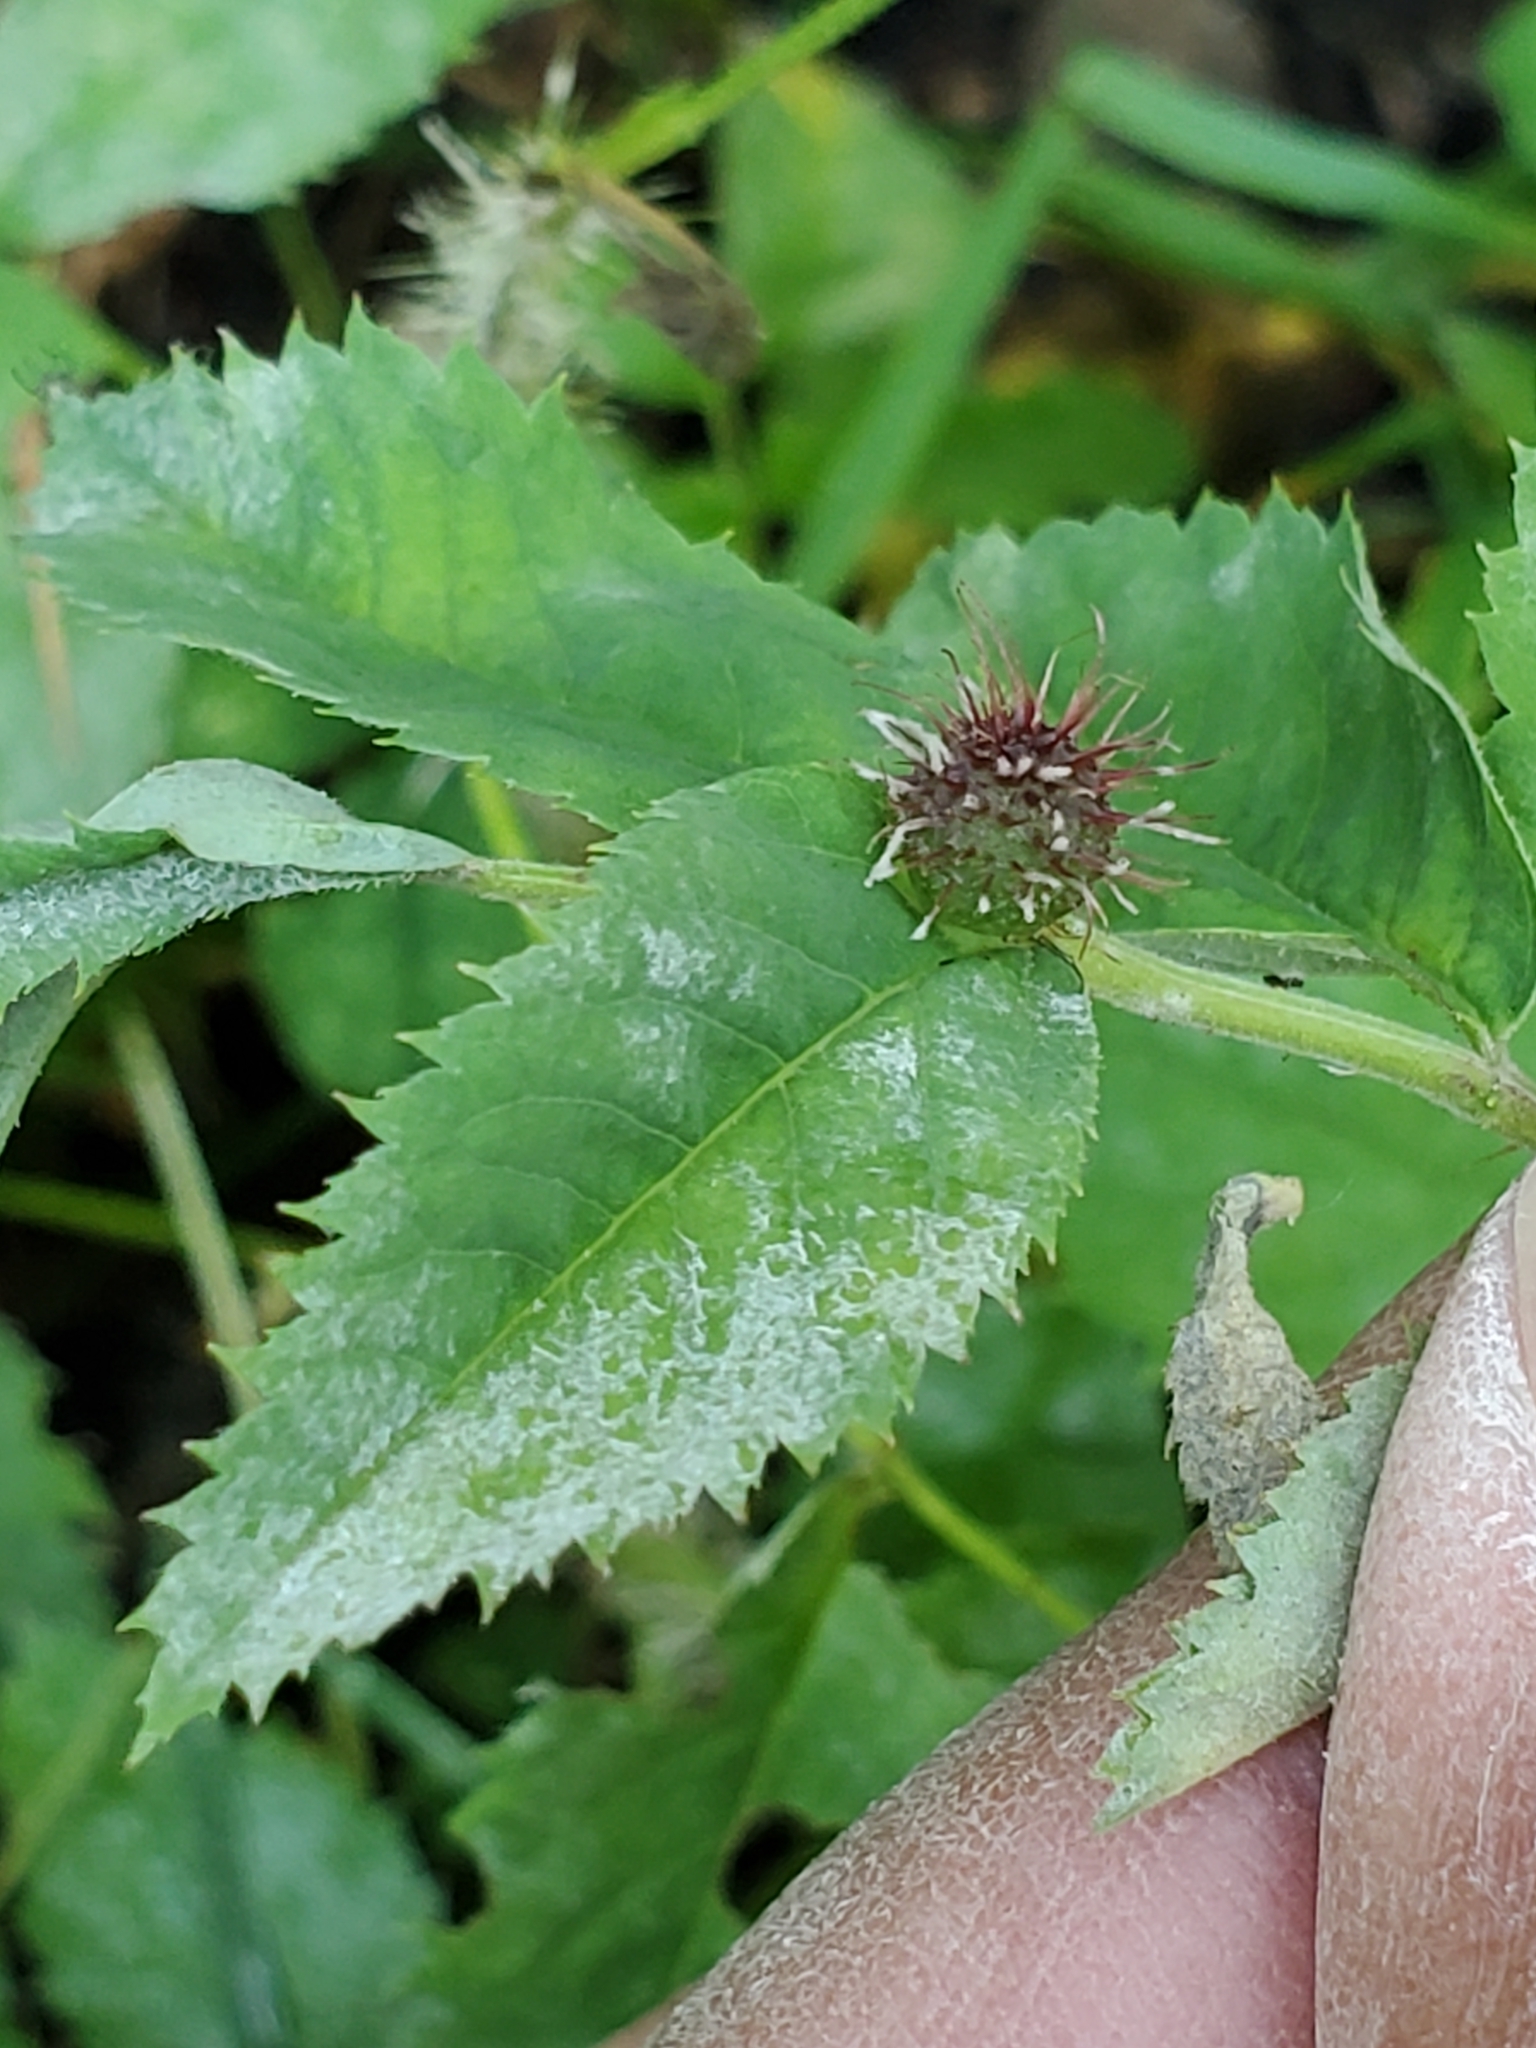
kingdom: Animalia
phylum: Arthropoda
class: Insecta
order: Hymenoptera
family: Cynipidae
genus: Diplolepis
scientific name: Diplolepis polita
